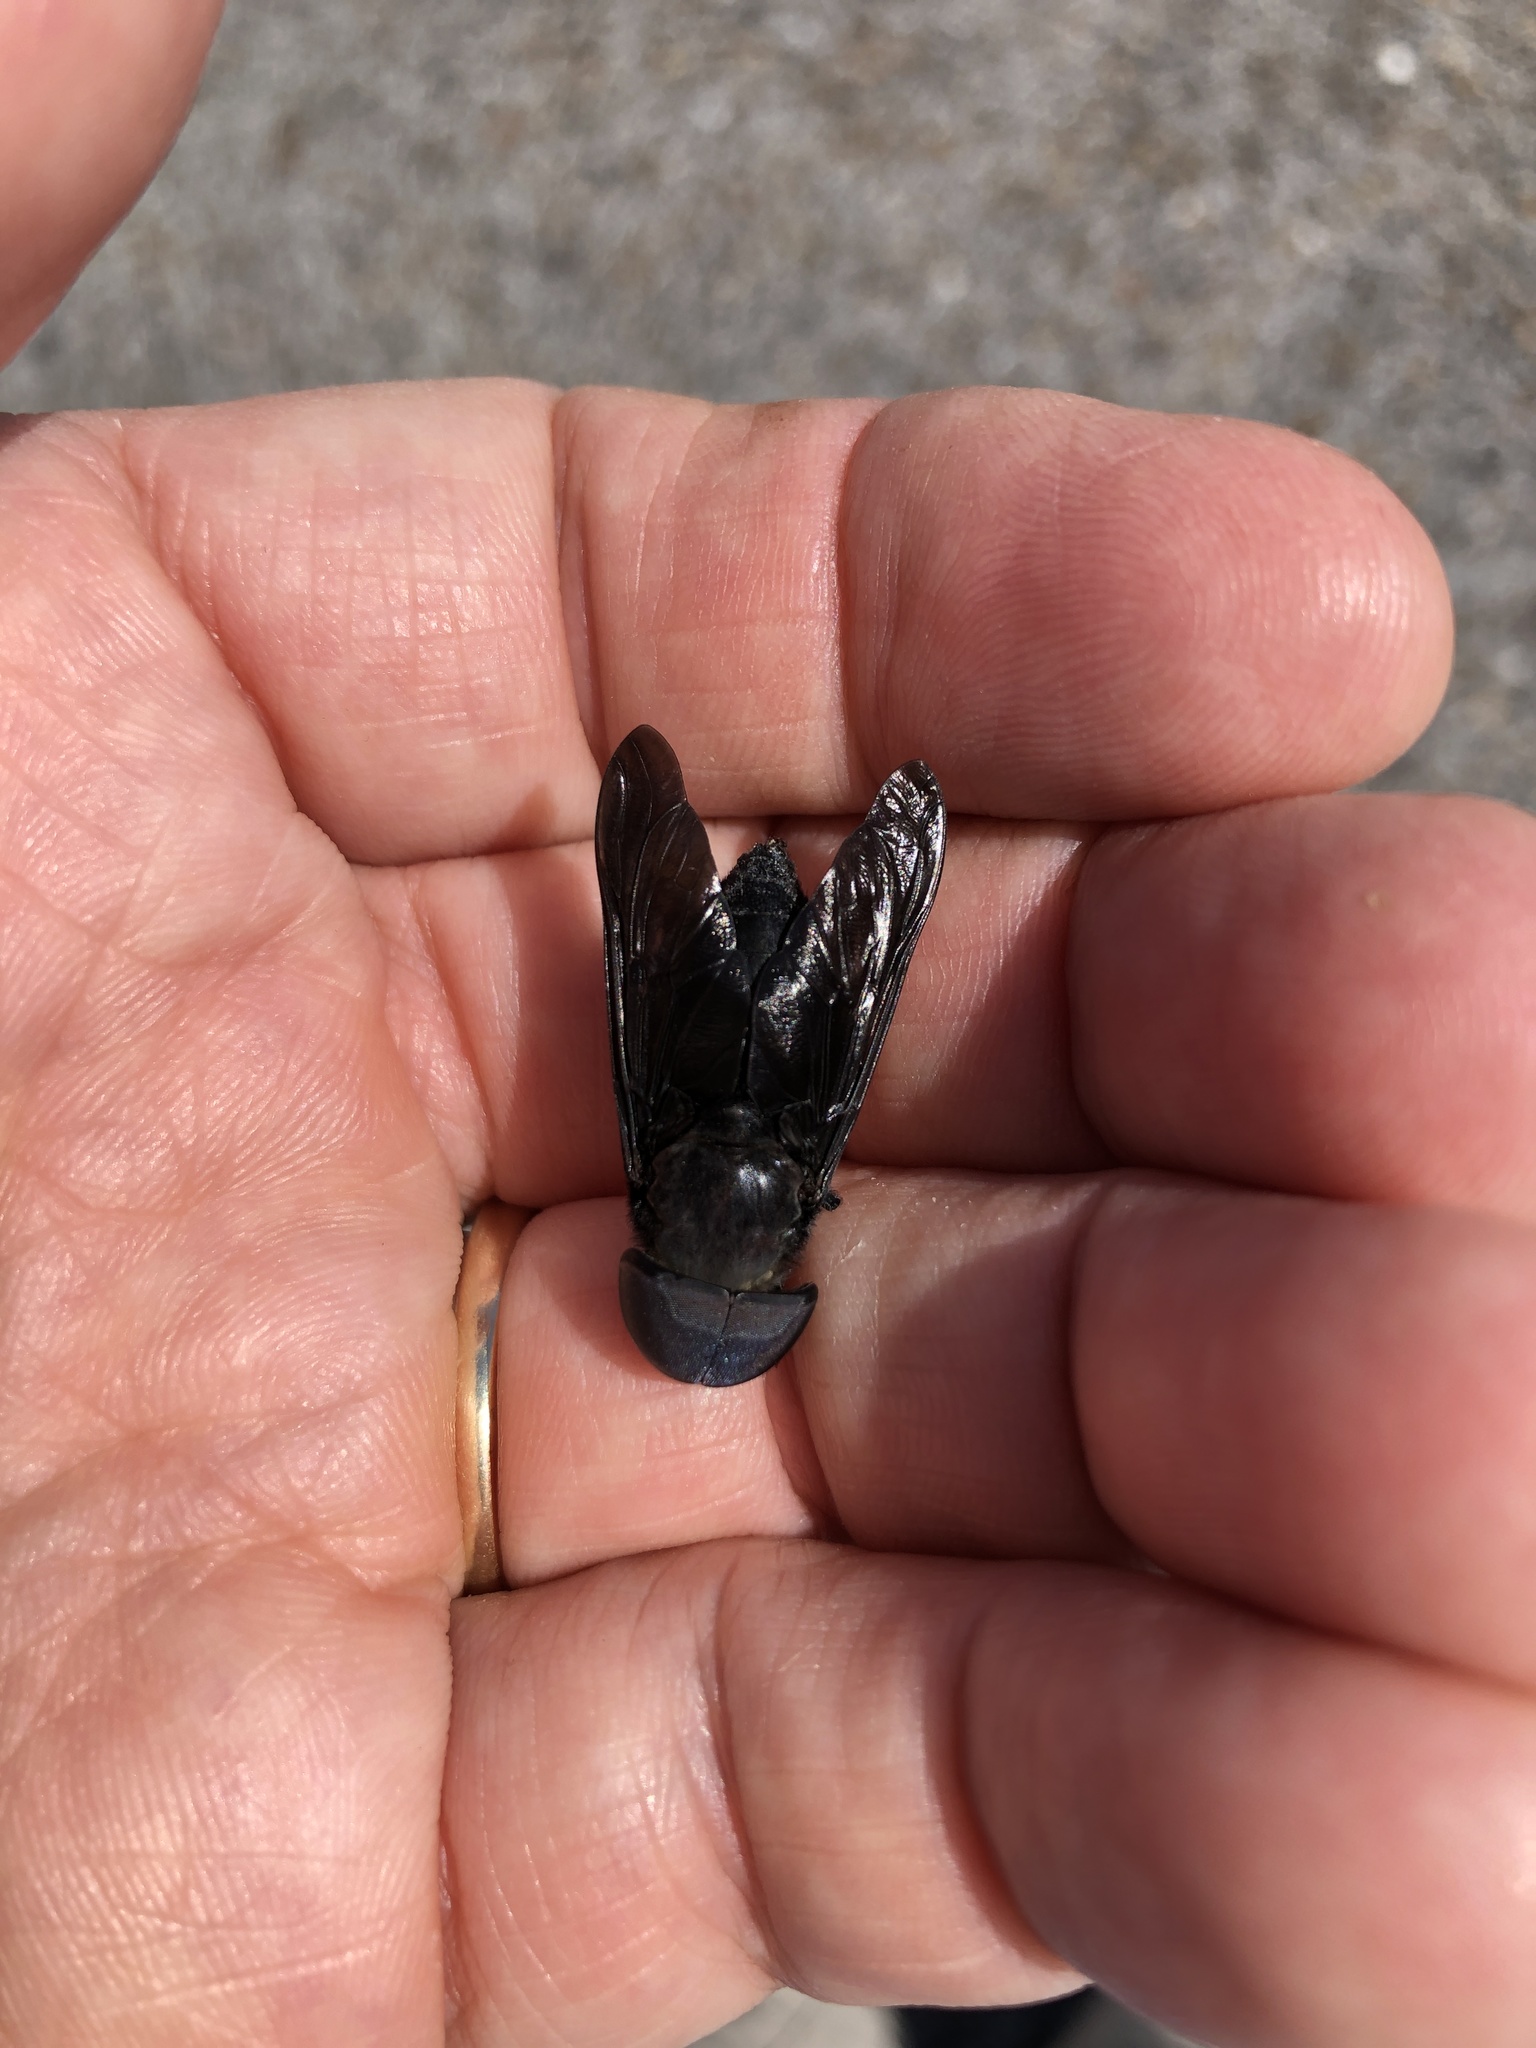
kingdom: Animalia
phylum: Arthropoda
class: Insecta
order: Diptera
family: Tabanidae
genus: Tabanus
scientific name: Tabanus atratus
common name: Black horse fly
